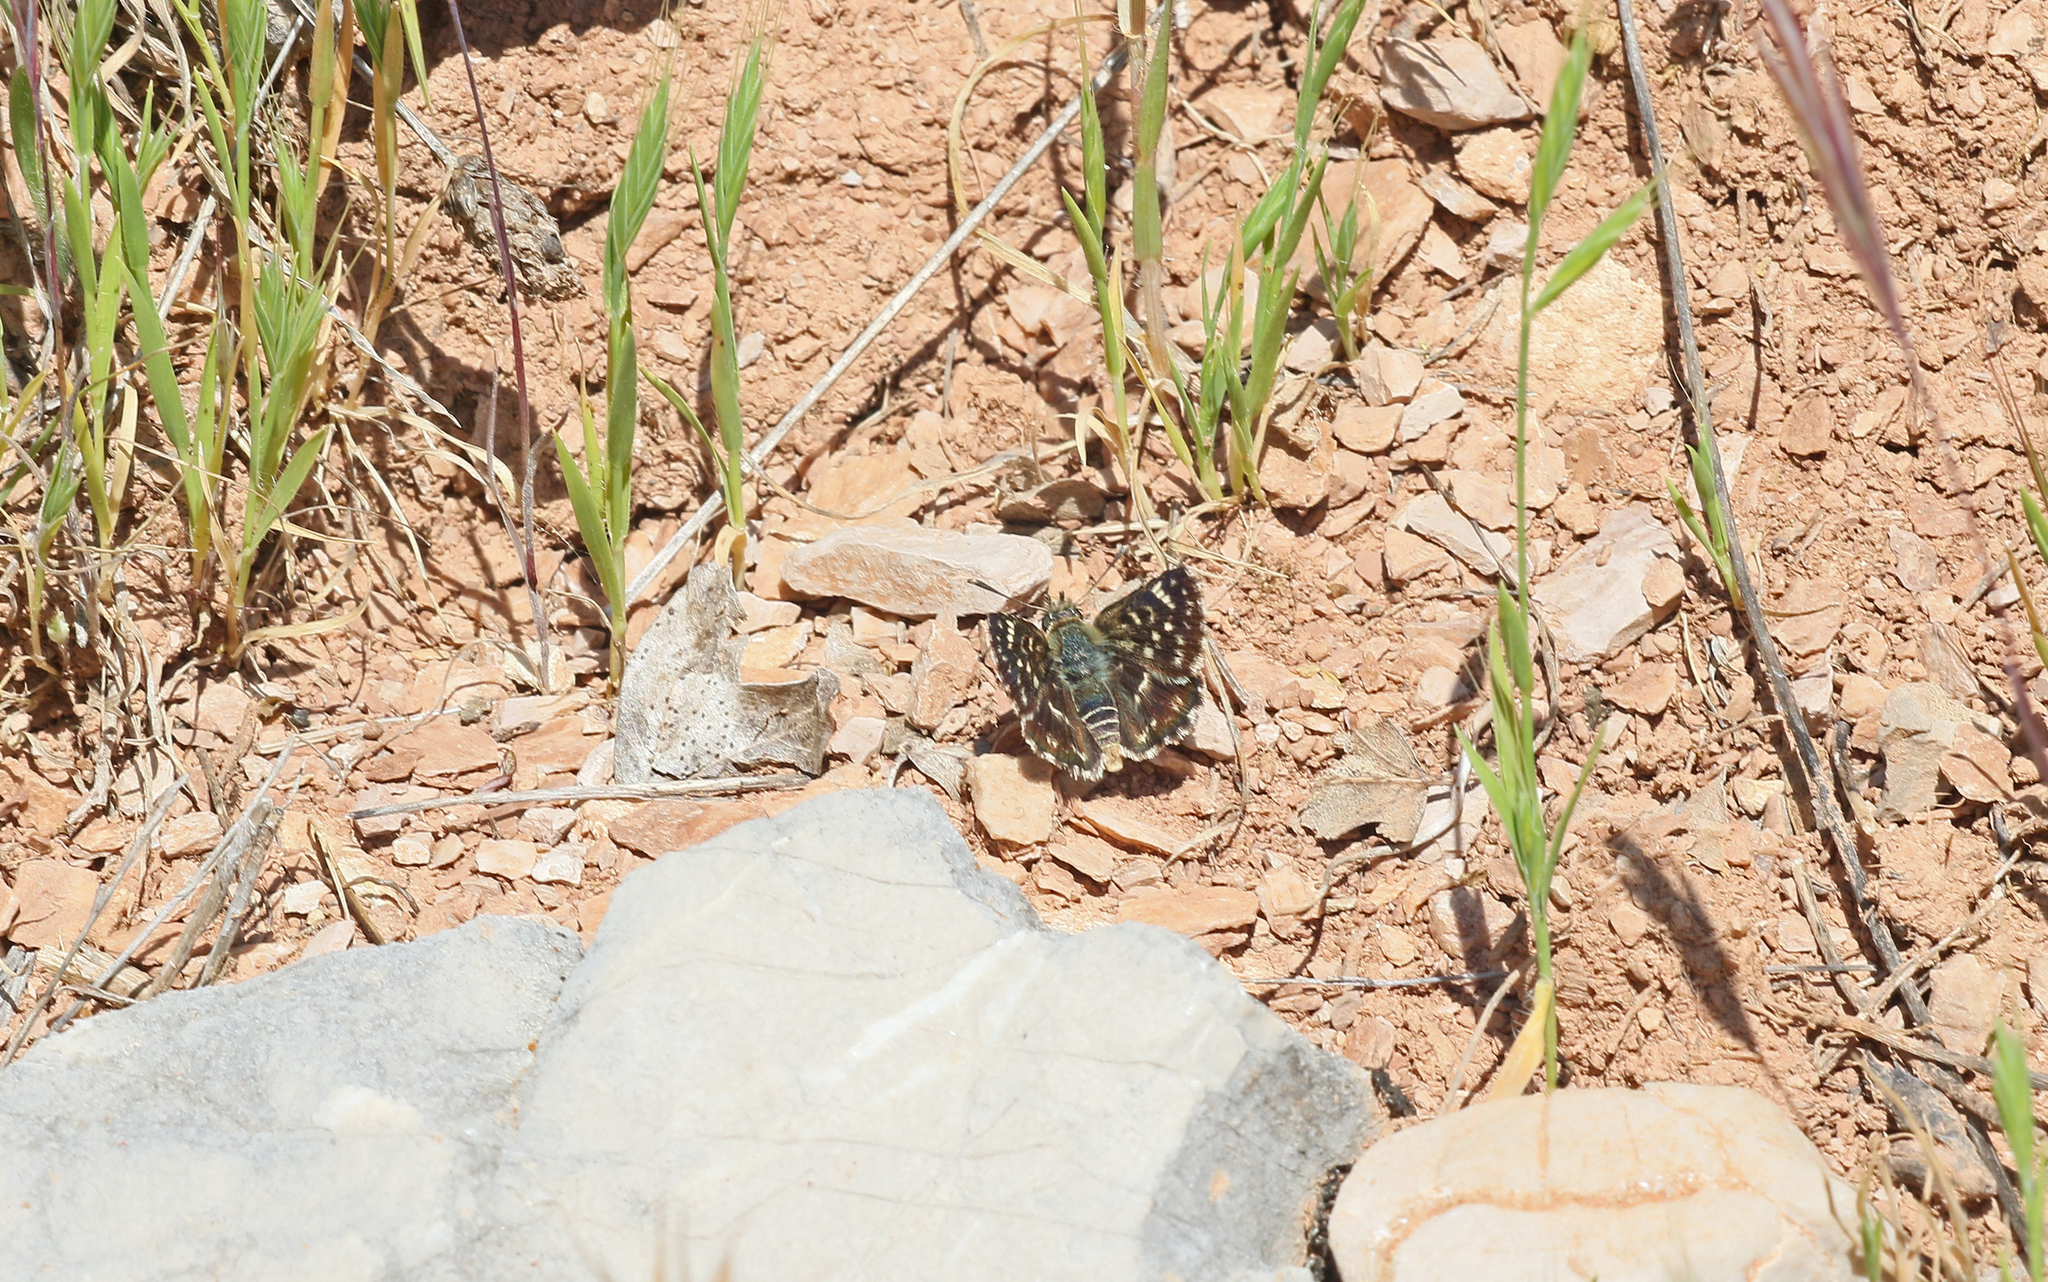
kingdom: Animalia
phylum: Arthropoda
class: Insecta
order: Lepidoptera
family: Hesperiidae
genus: Spialia
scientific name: Spialia sertorius
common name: Red underwing skipper
